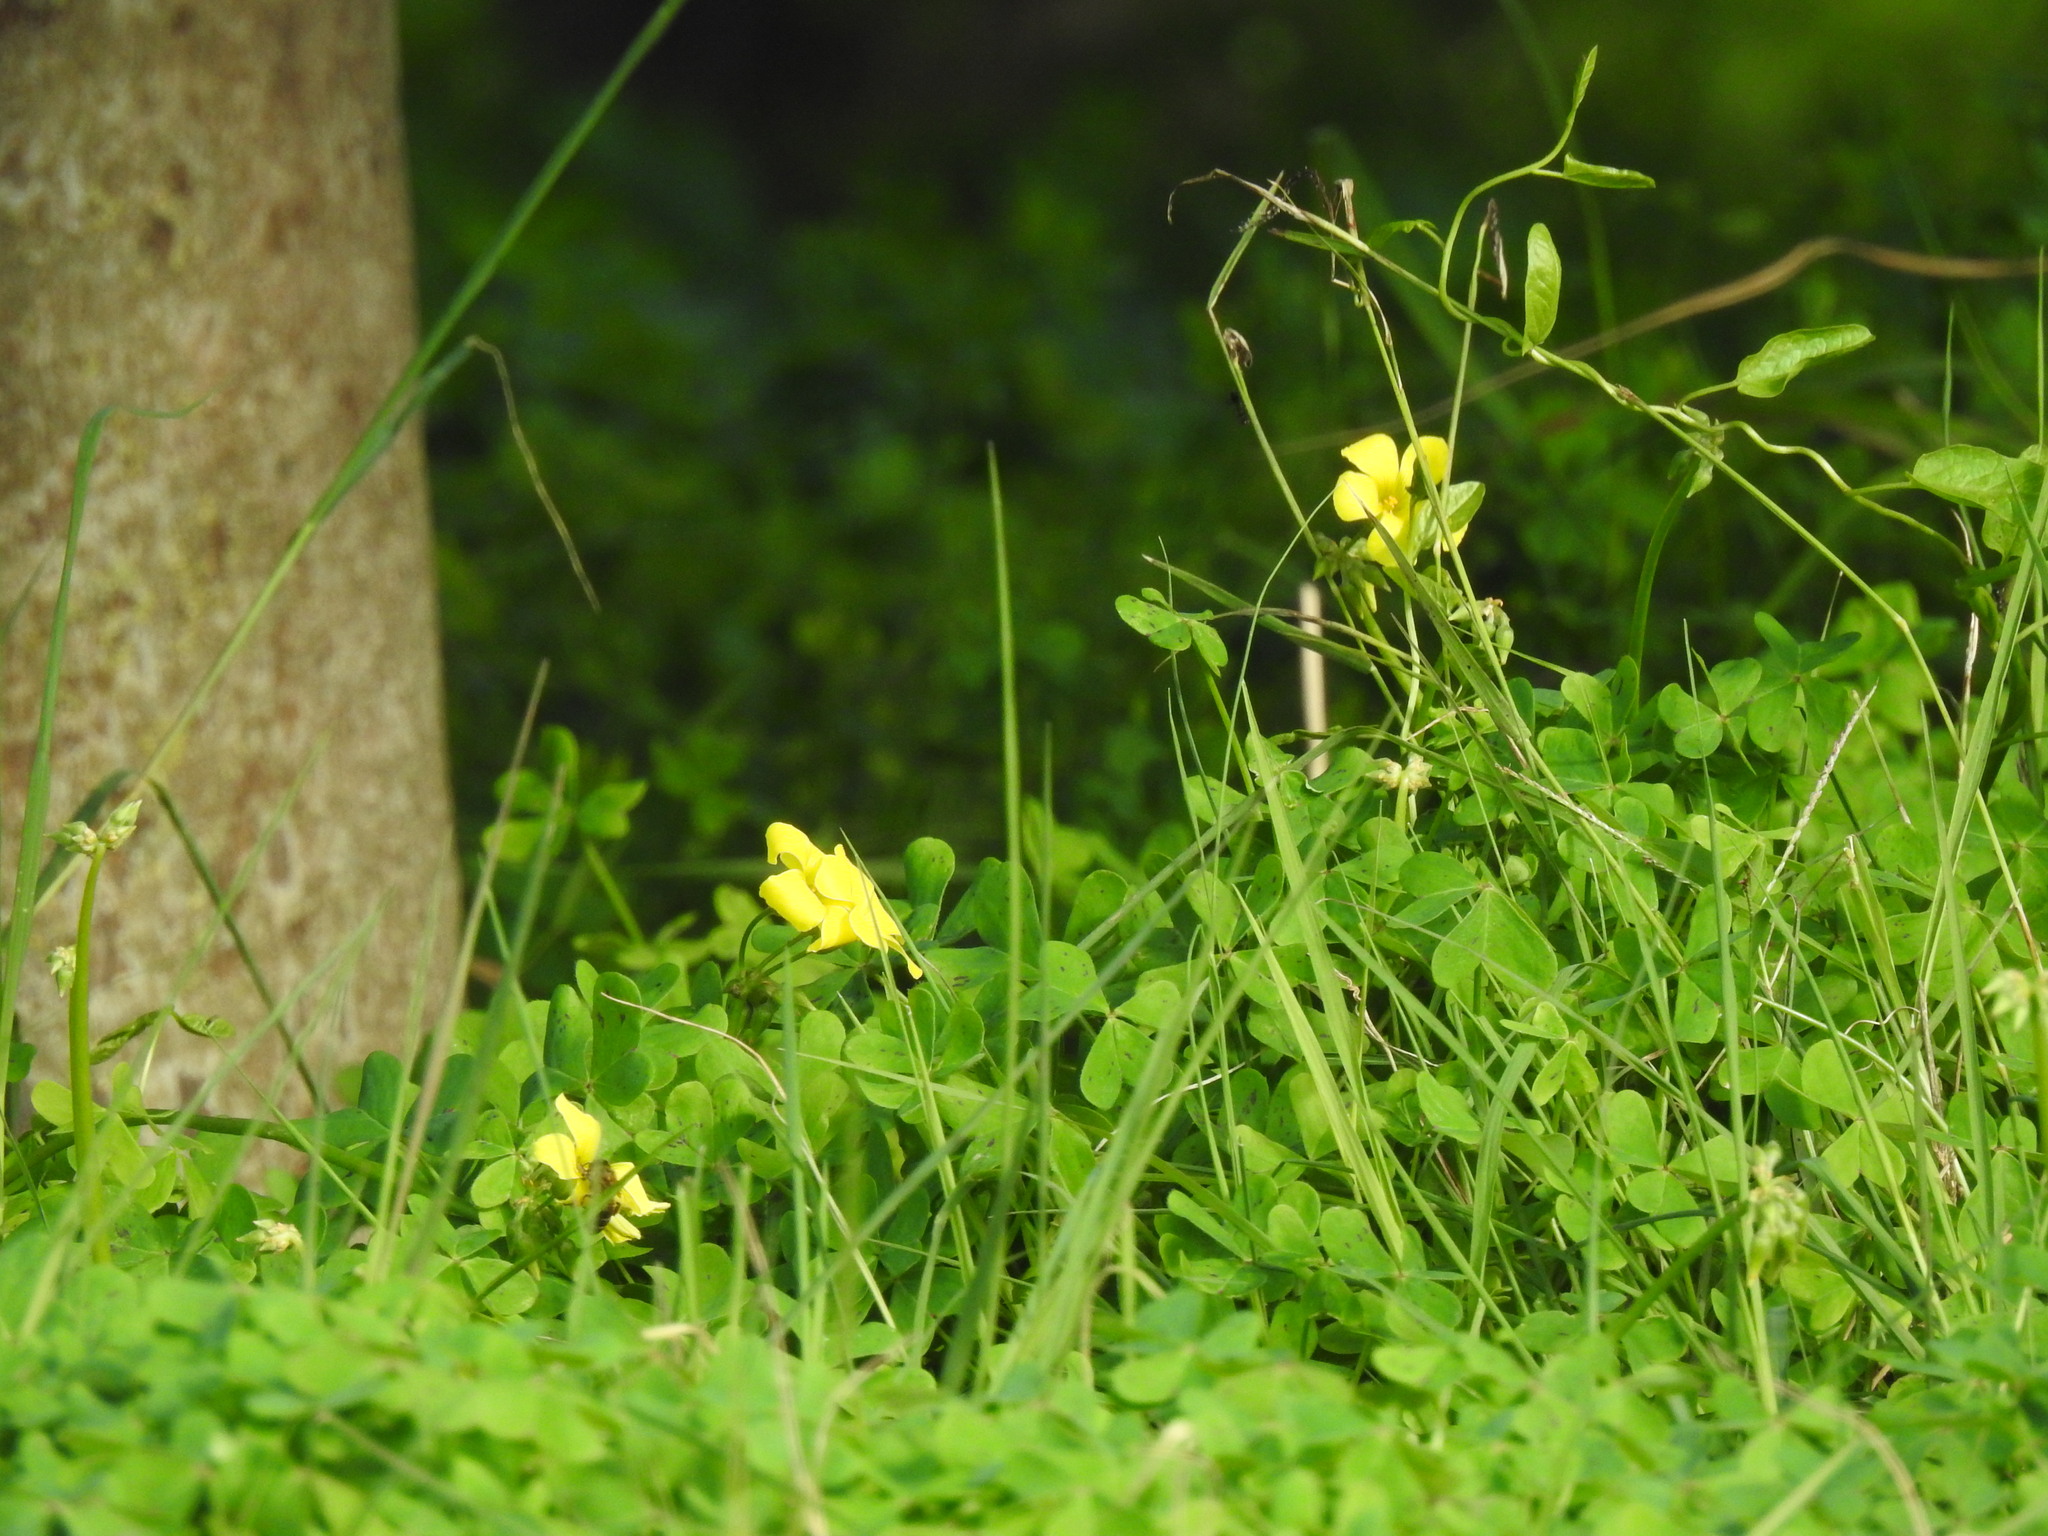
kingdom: Plantae
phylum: Tracheophyta
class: Magnoliopsida
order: Oxalidales
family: Oxalidaceae
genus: Oxalis
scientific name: Oxalis pes-caprae
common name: Bermuda-buttercup
